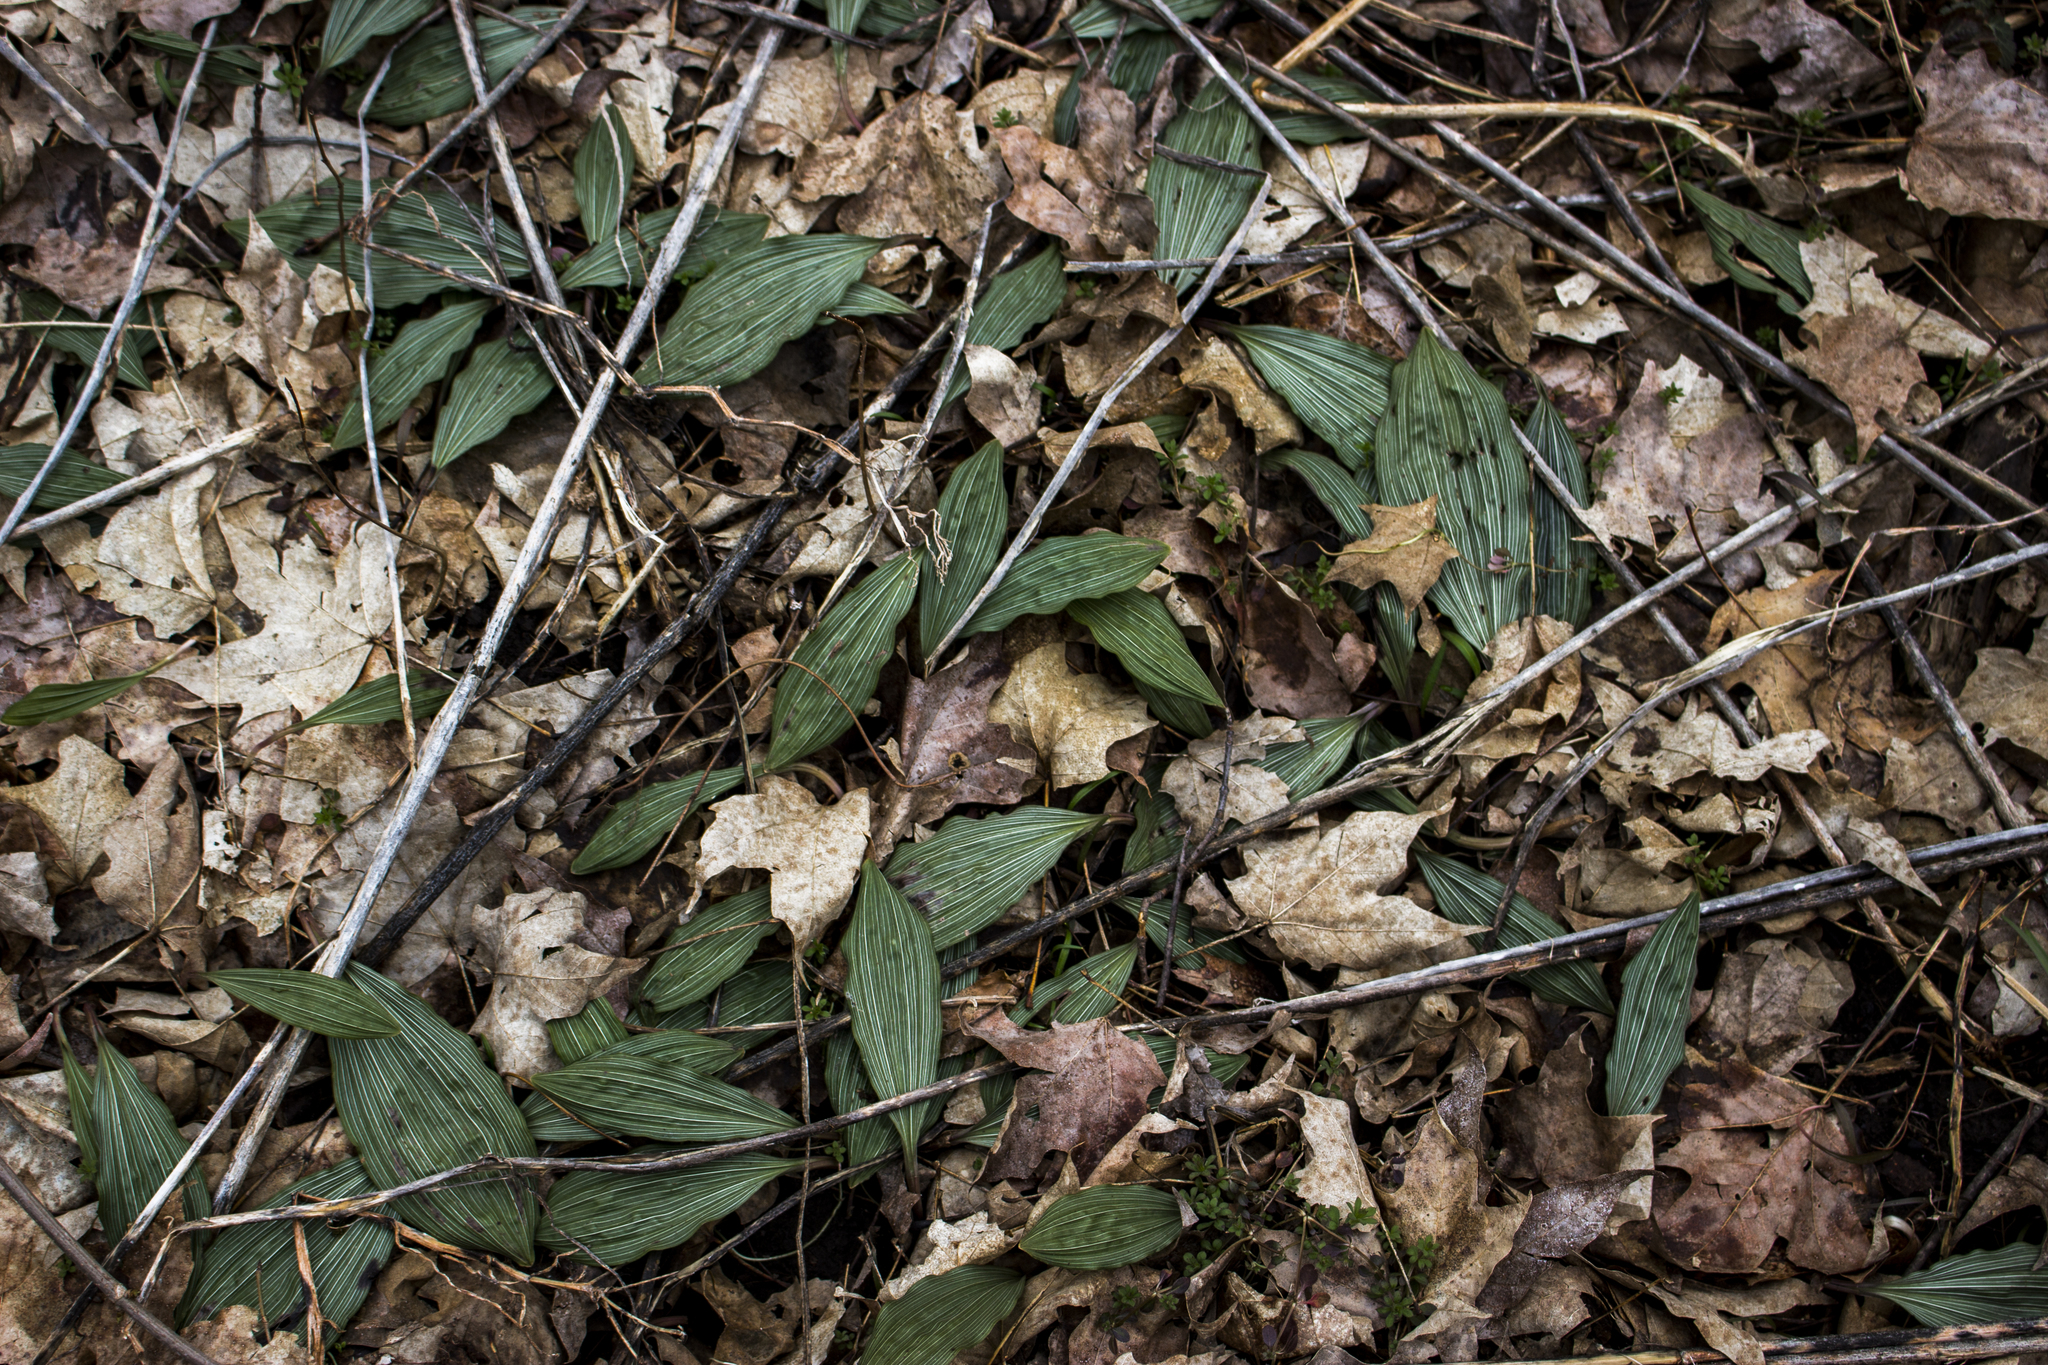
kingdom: Plantae
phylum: Tracheophyta
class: Liliopsida
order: Asparagales
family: Orchidaceae
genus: Aplectrum
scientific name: Aplectrum hyemale
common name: Adam-and-eve
